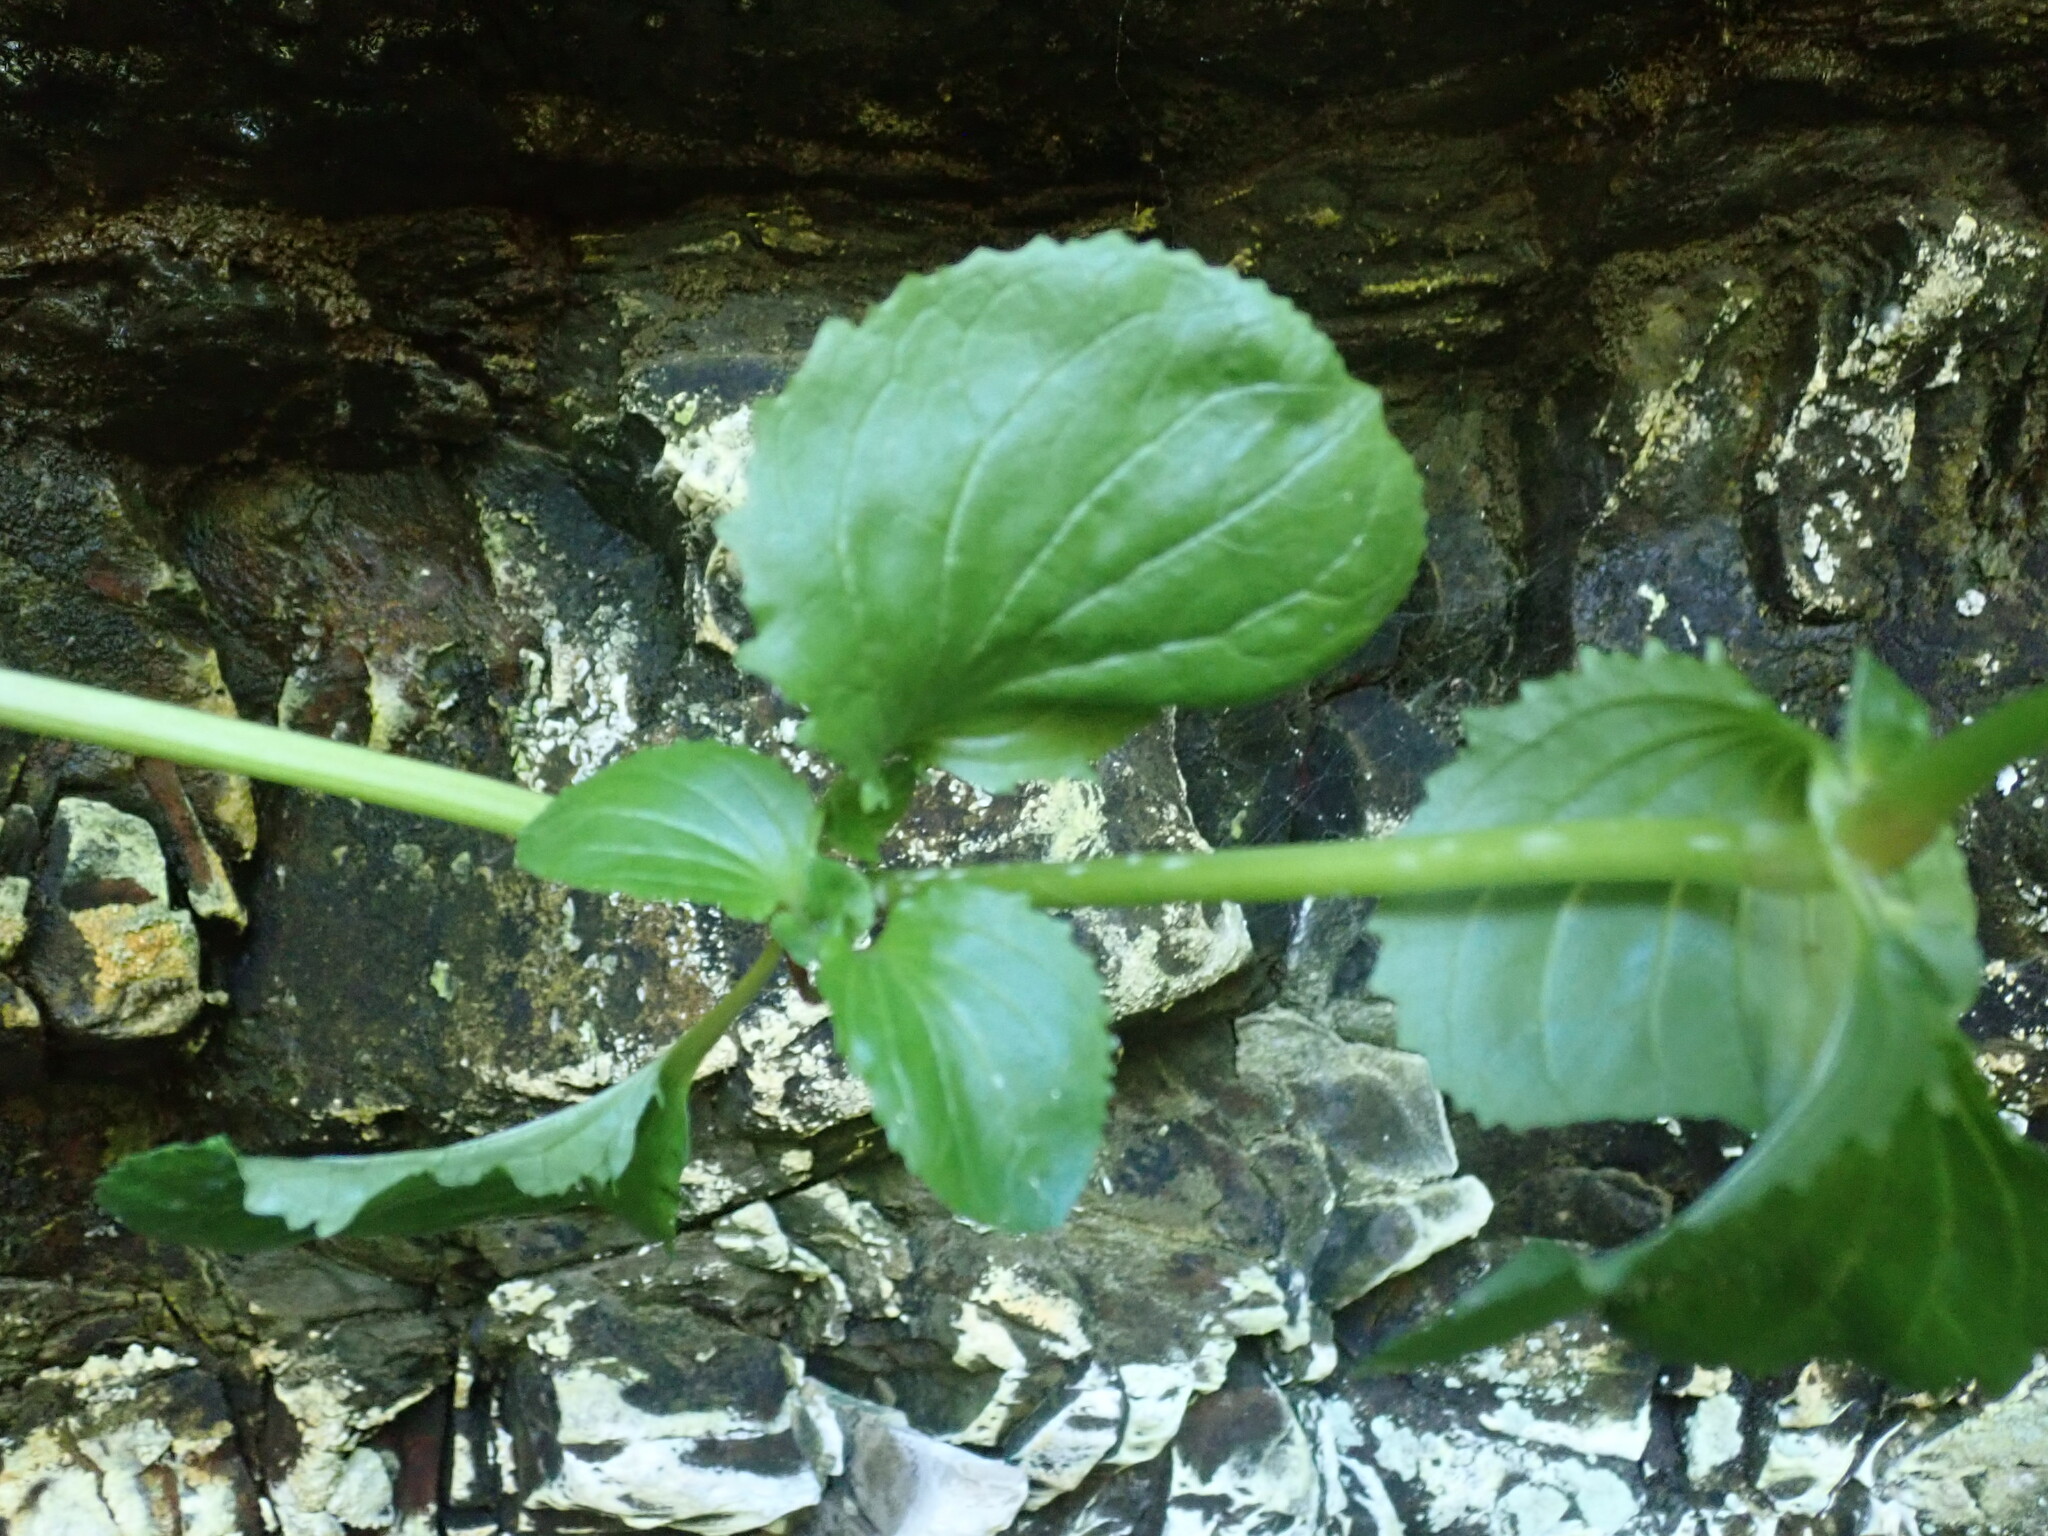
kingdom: Plantae
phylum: Tracheophyta
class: Magnoliopsida
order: Lamiales
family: Phrymaceae
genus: Erythranthe
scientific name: Erythranthe grandis
